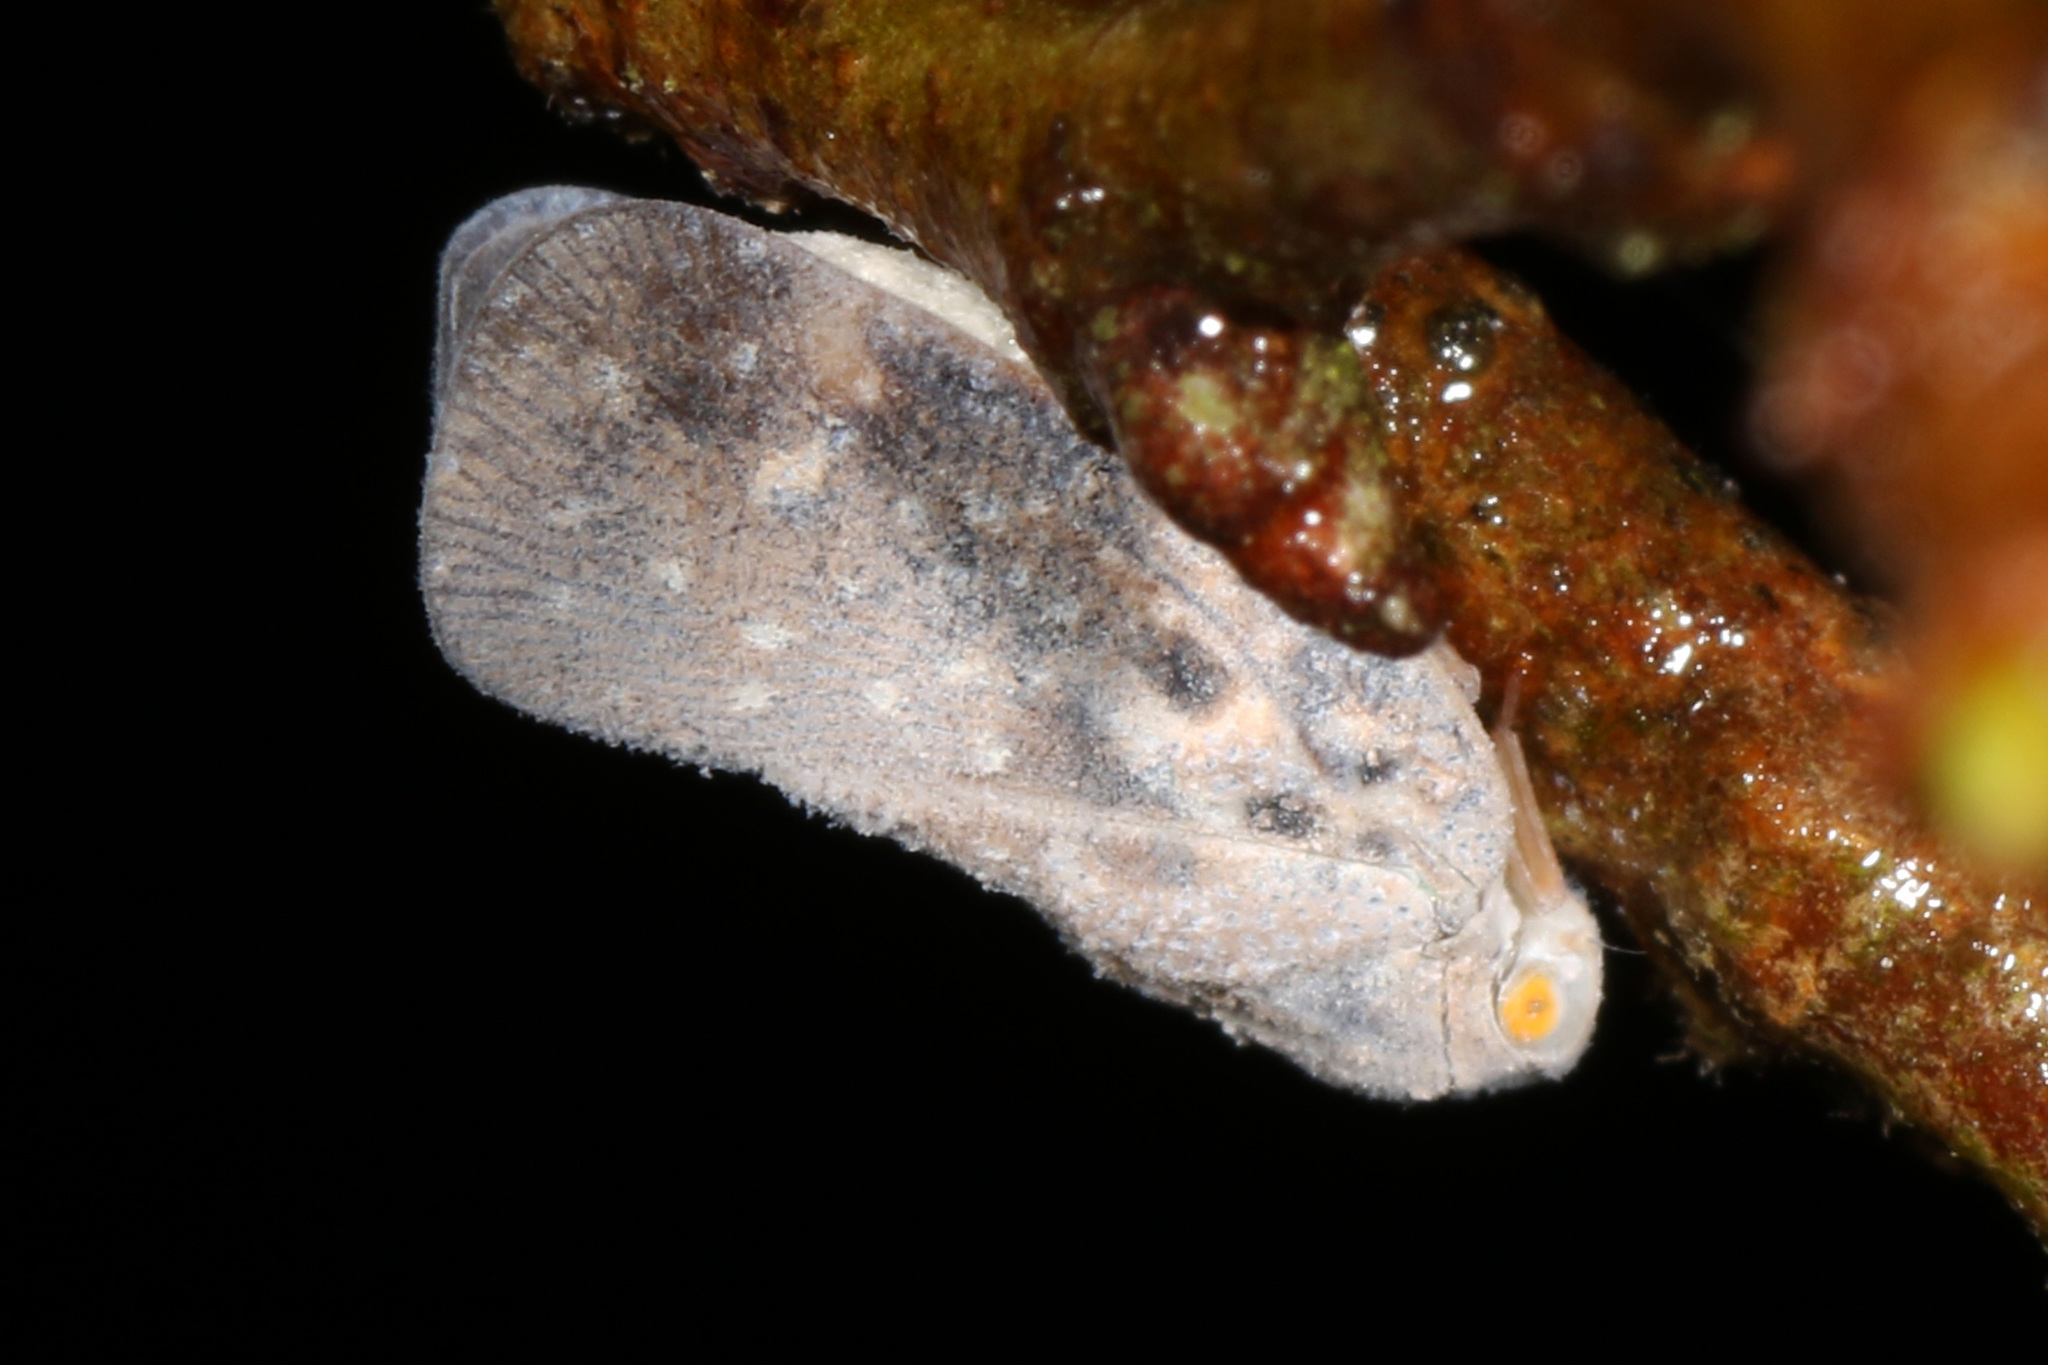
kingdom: Animalia
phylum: Arthropoda
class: Insecta
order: Hemiptera
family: Flatidae
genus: Metcalfa
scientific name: Metcalfa pruinosa
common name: Citrus flatid planthopper
